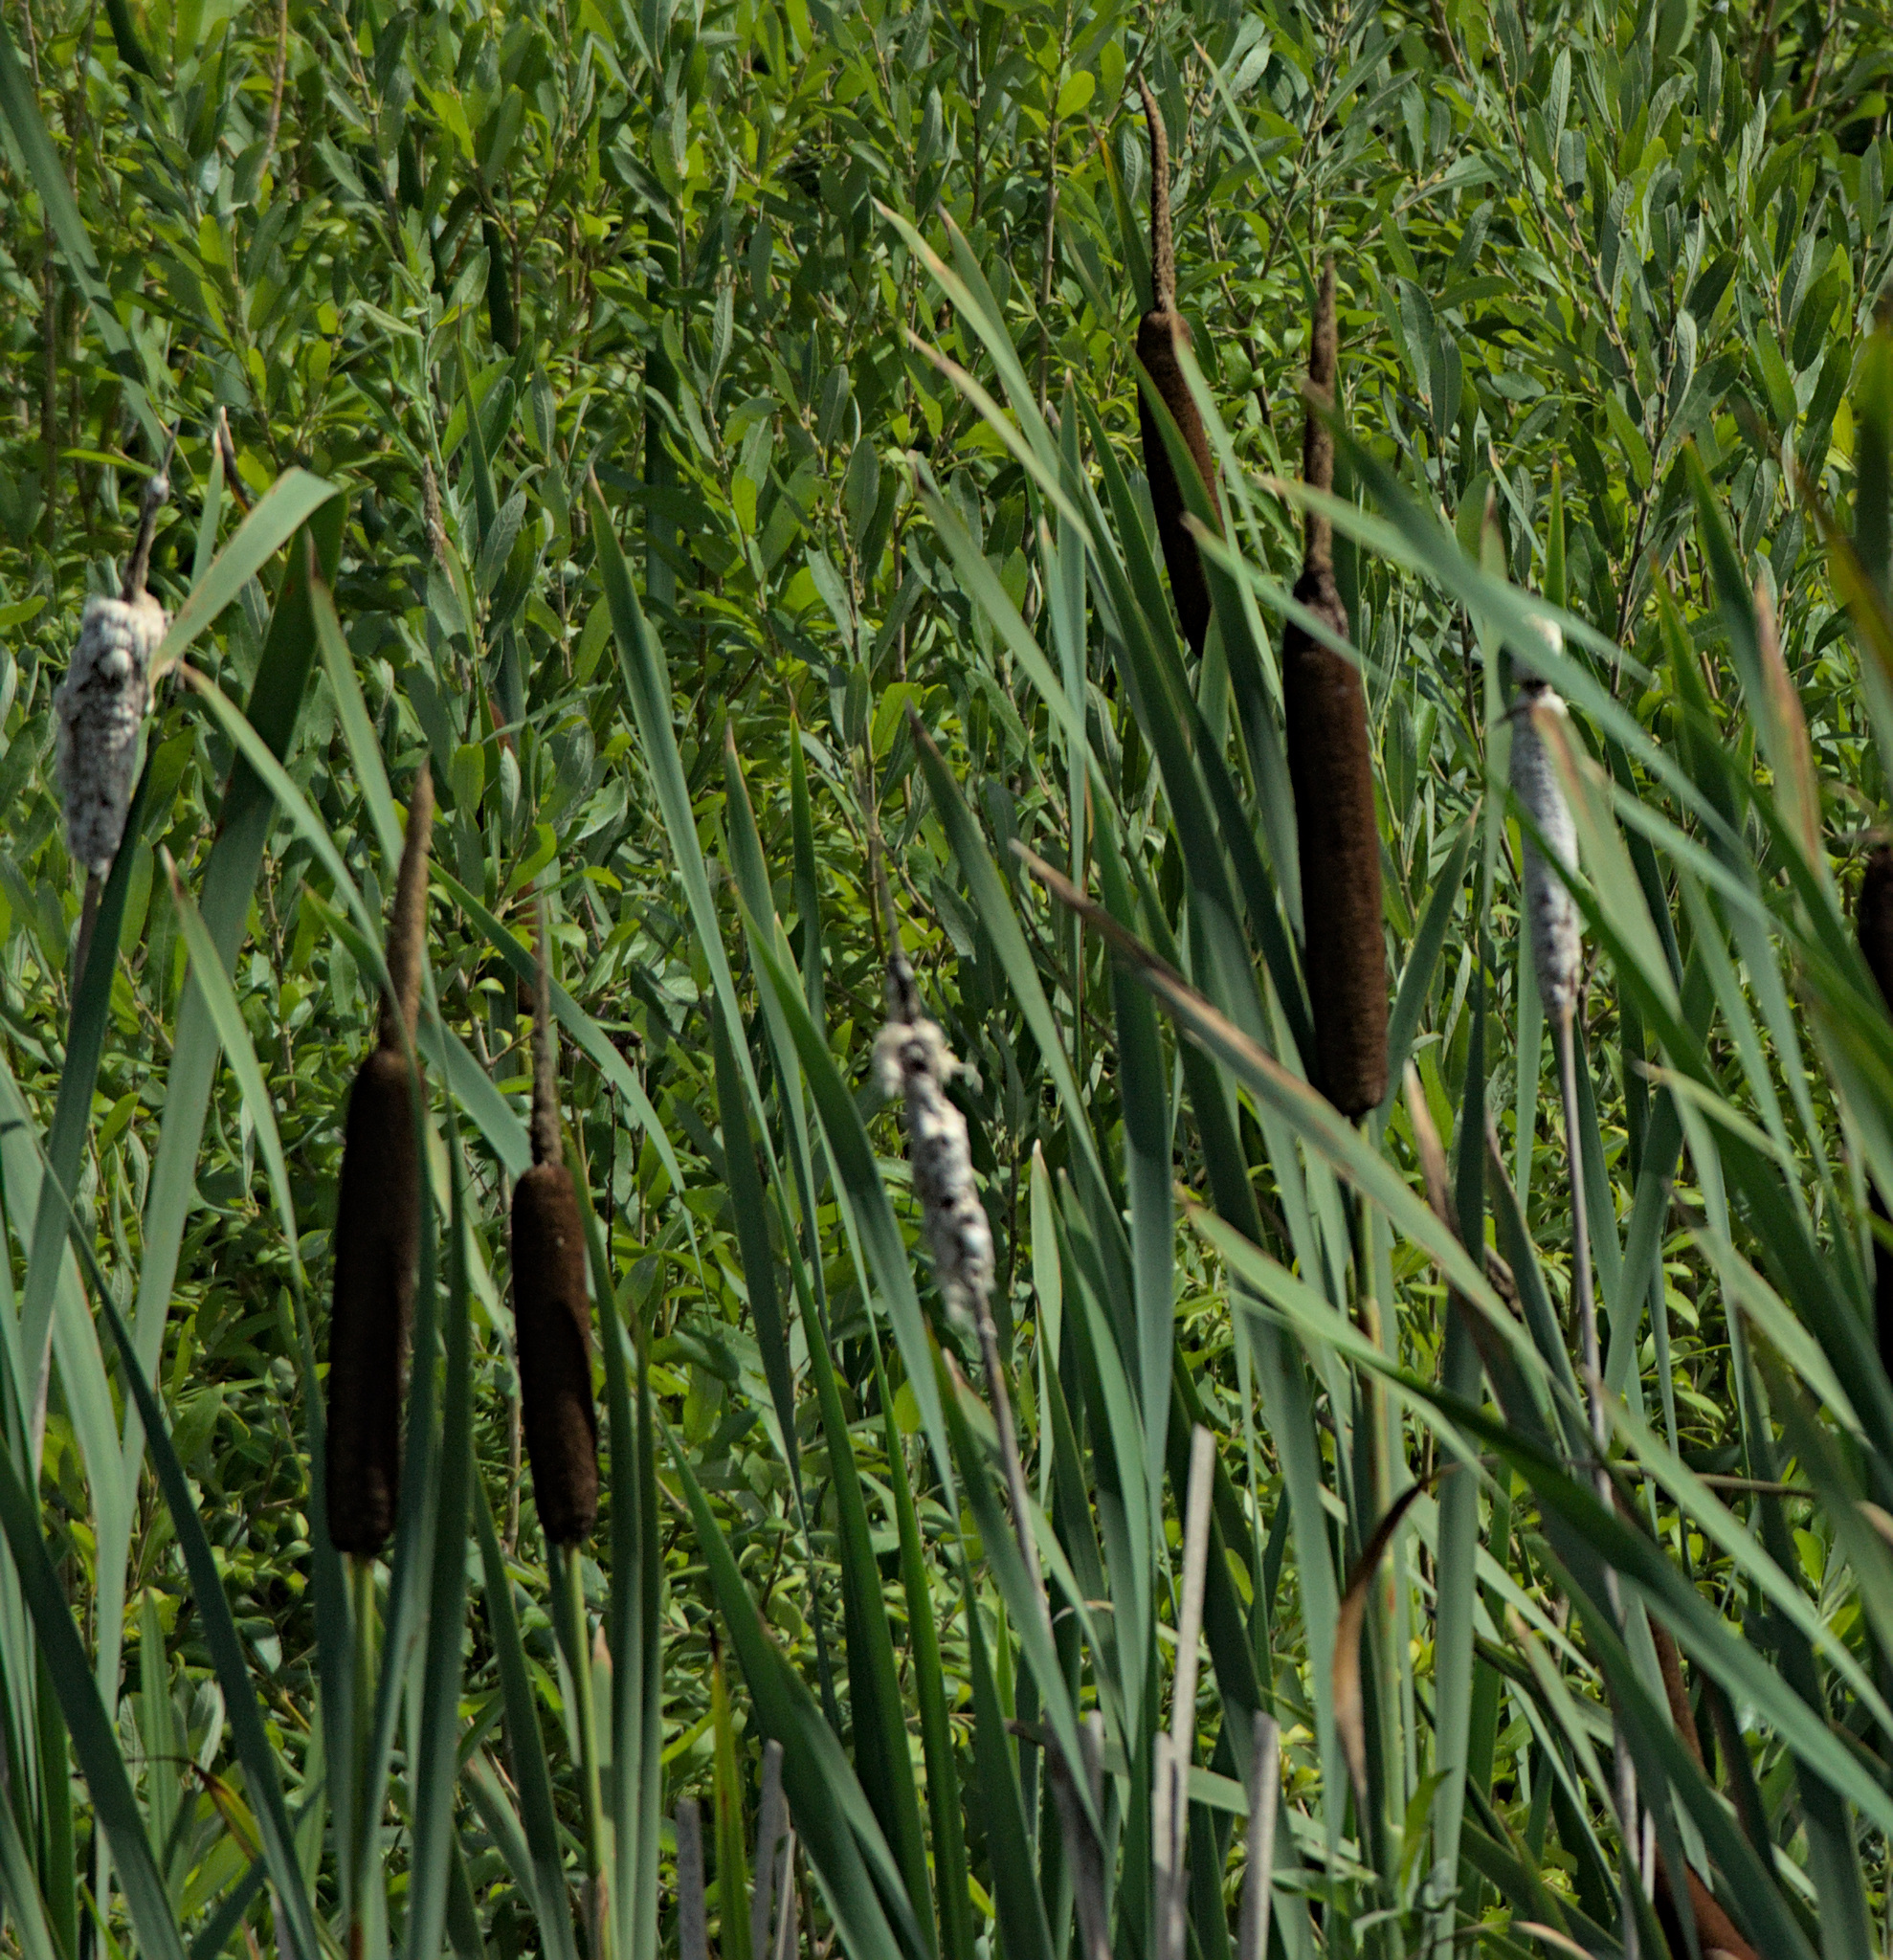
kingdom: Plantae
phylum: Tracheophyta
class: Liliopsida
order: Poales
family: Typhaceae
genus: Typha
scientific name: Typha latifolia
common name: Broadleaf cattail
